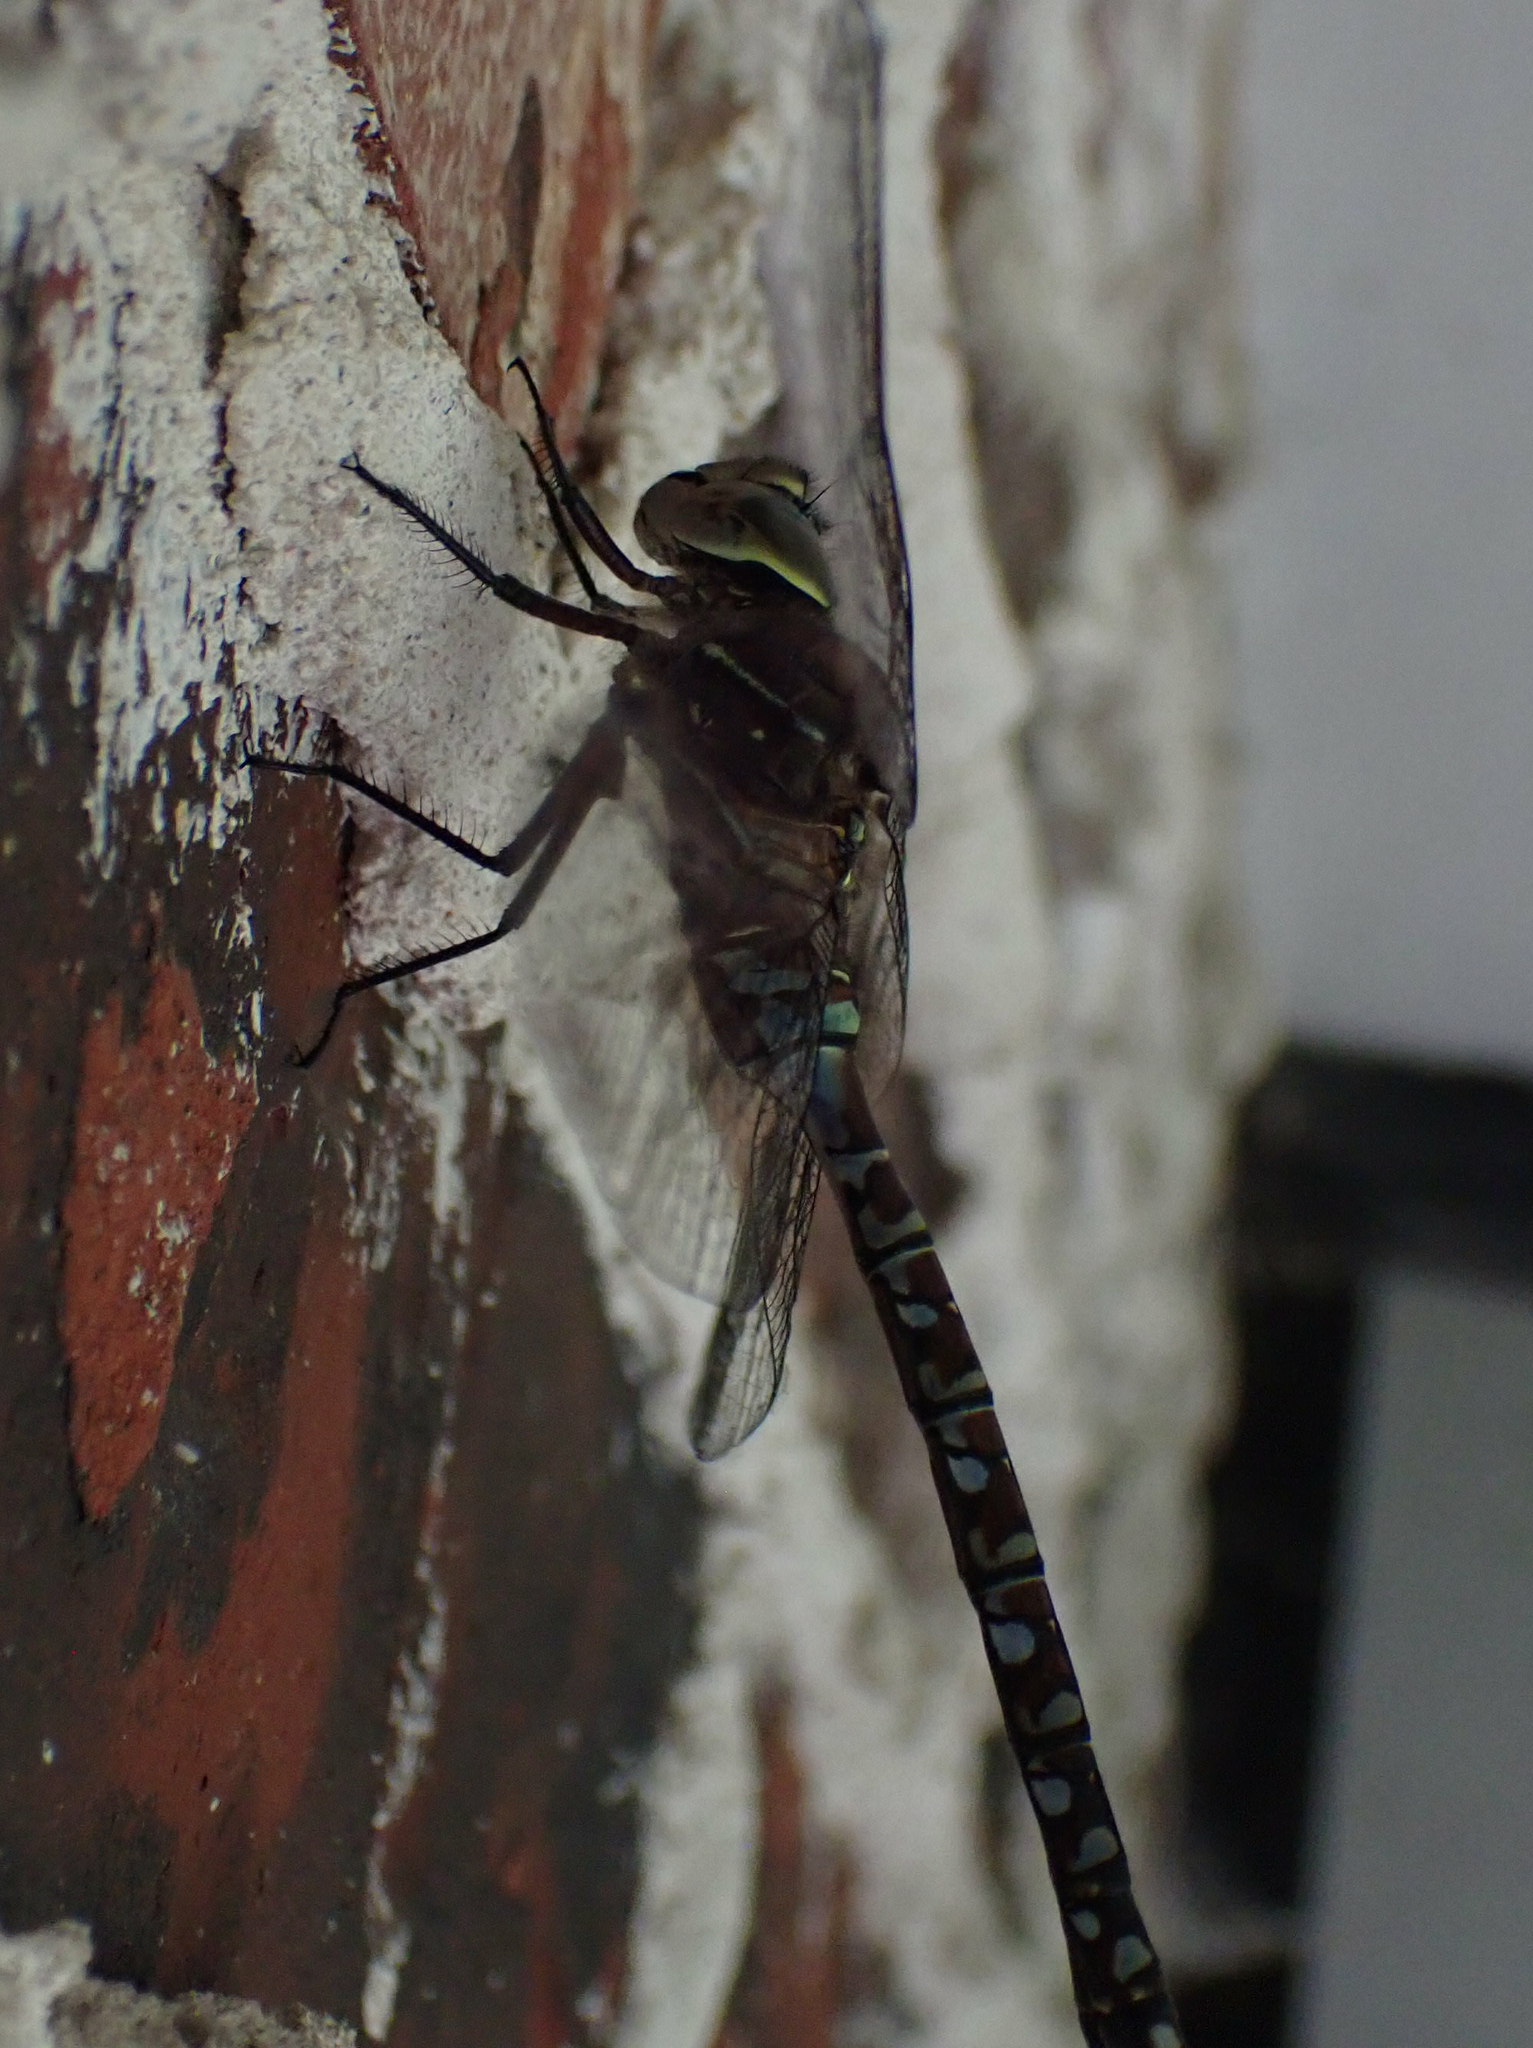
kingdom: Animalia
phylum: Arthropoda
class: Insecta
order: Odonata
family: Aeshnidae
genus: Aeshna
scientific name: Aeshna interrupta
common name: Variable darner
